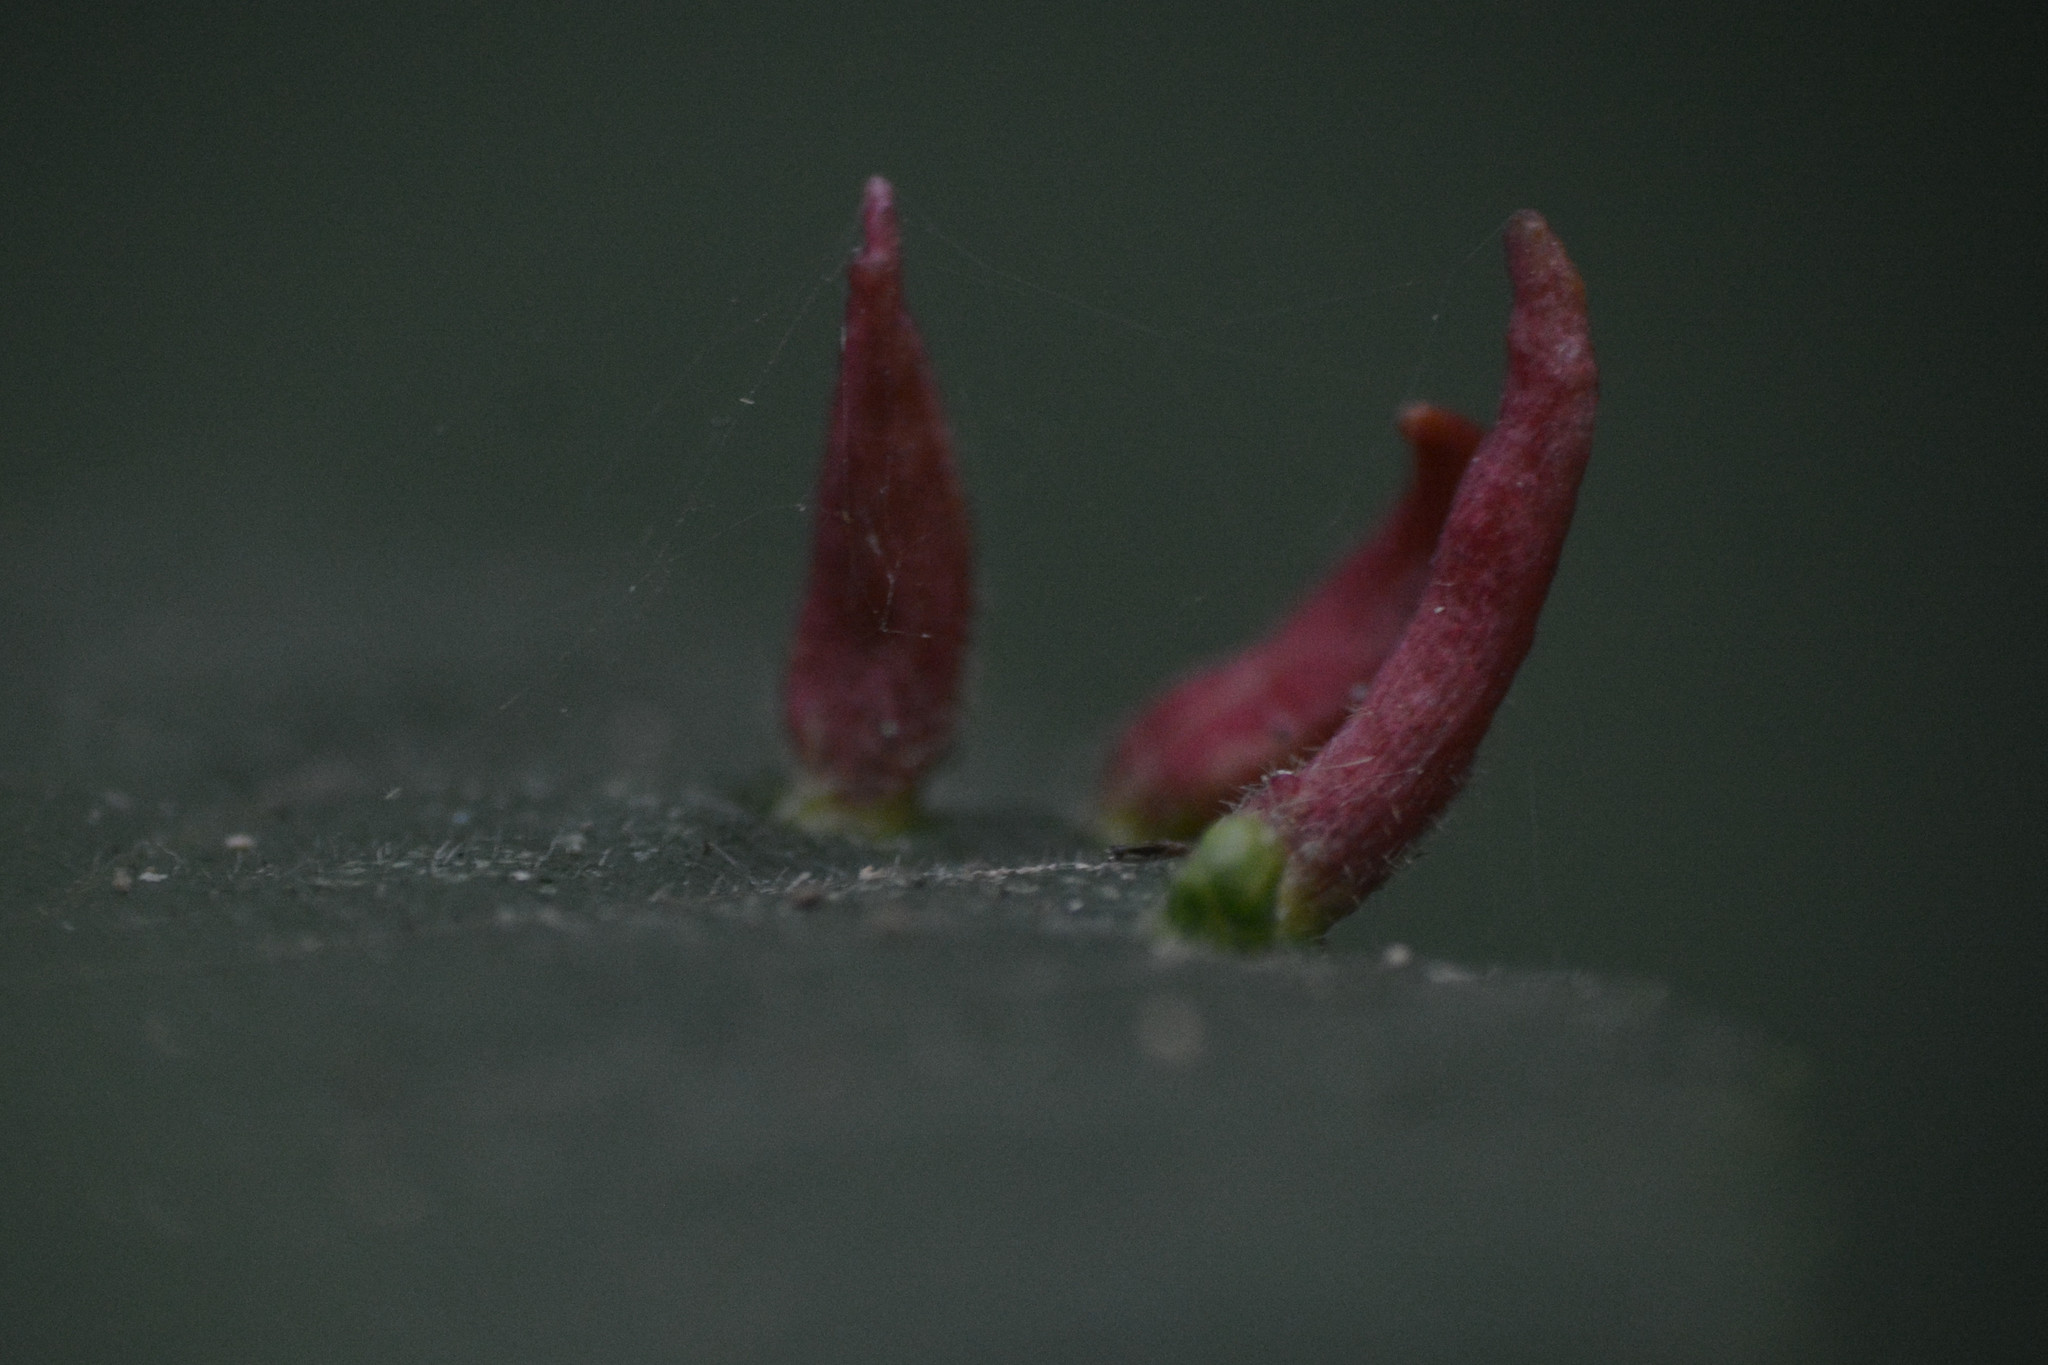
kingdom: Animalia
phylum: Arthropoda
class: Arachnida
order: Trombidiformes
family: Eriophyidae
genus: Eriophyes
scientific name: Eriophyes tiliae
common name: Red nail gall mite
